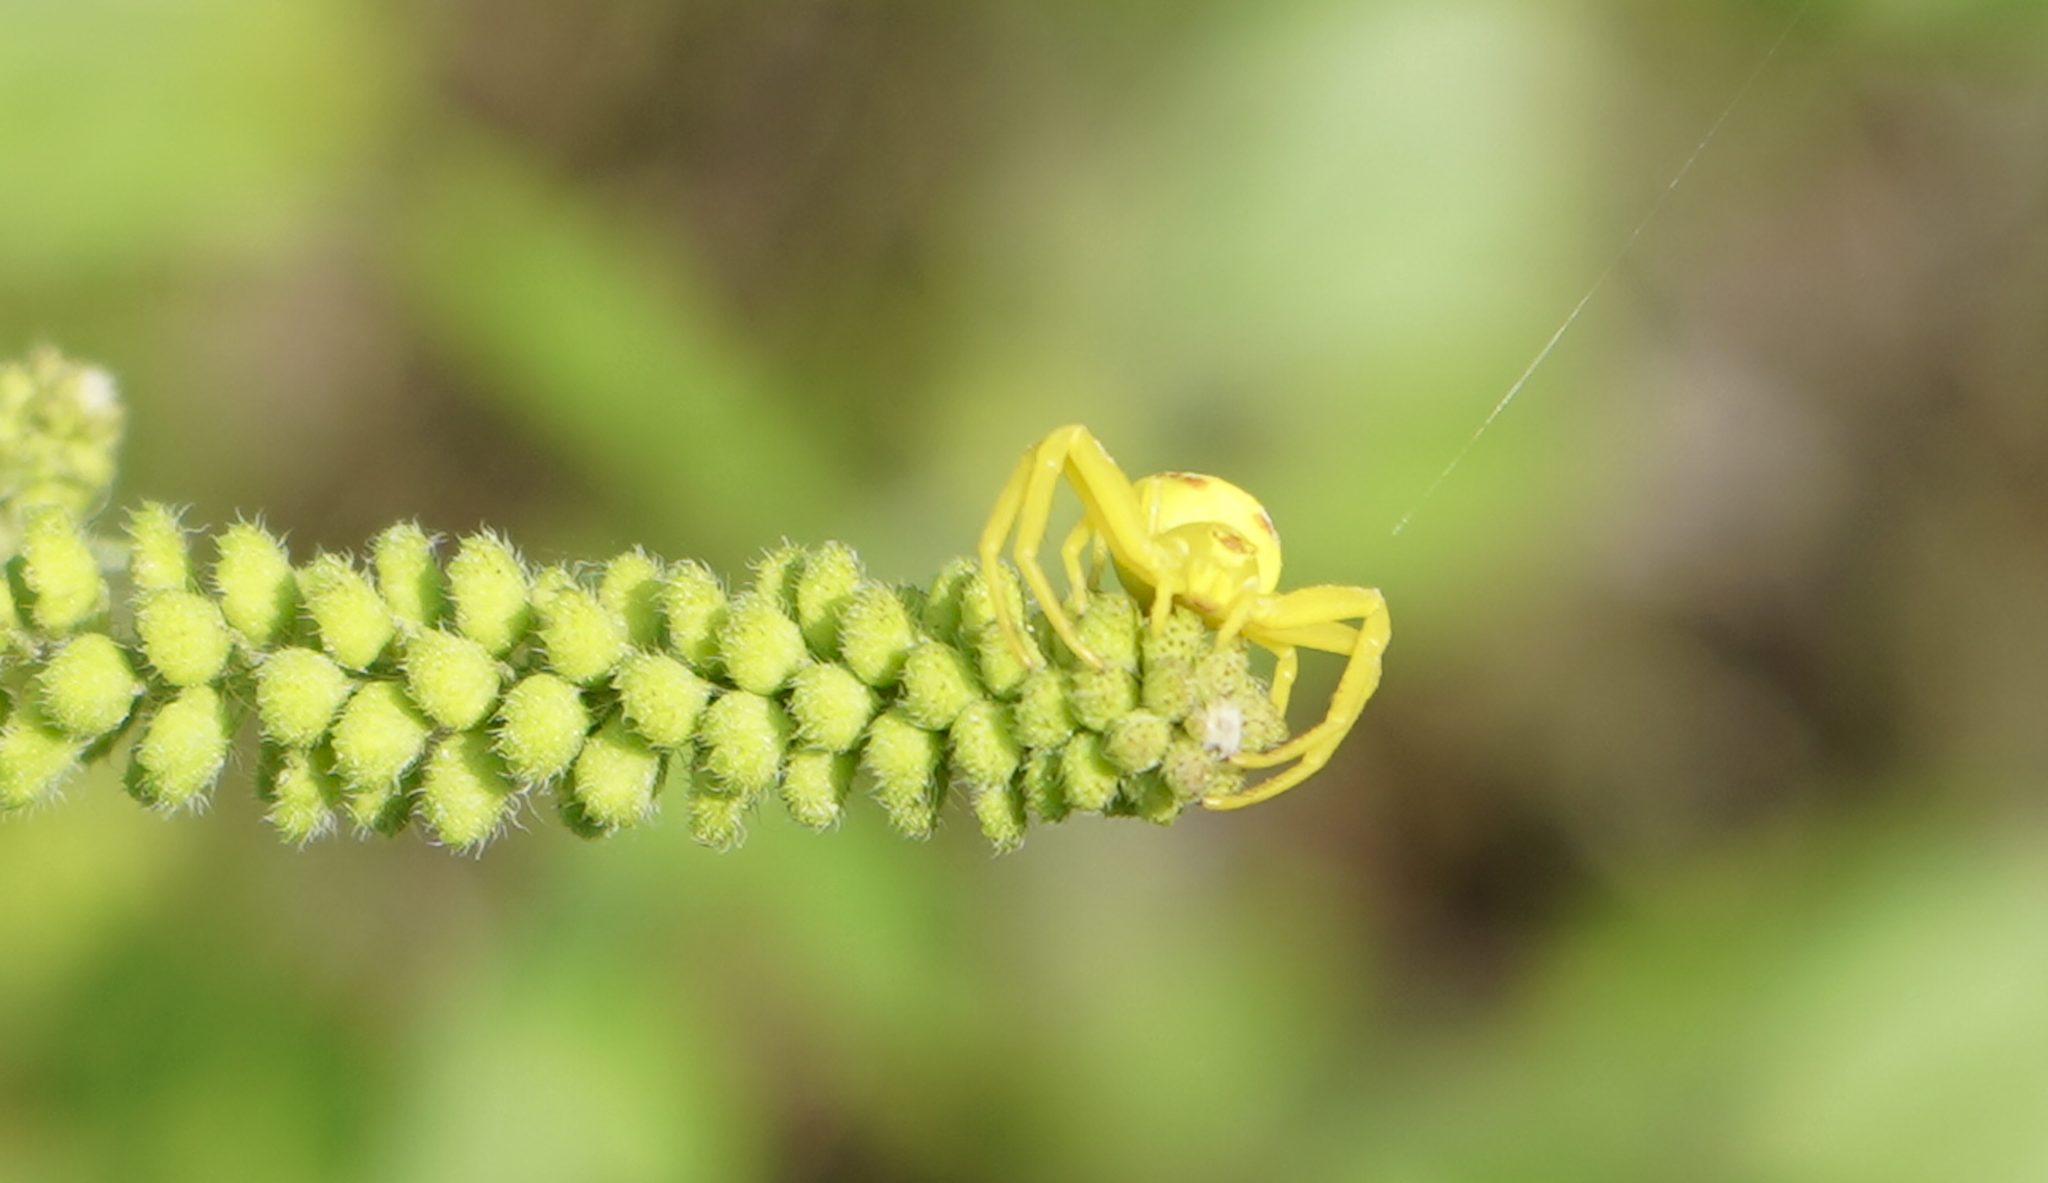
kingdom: Animalia
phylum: Arthropoda
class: Arachnida
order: Araneae
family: Thomisidae
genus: Misumena
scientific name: Misumena vatia
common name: Goldenrod crab spider
